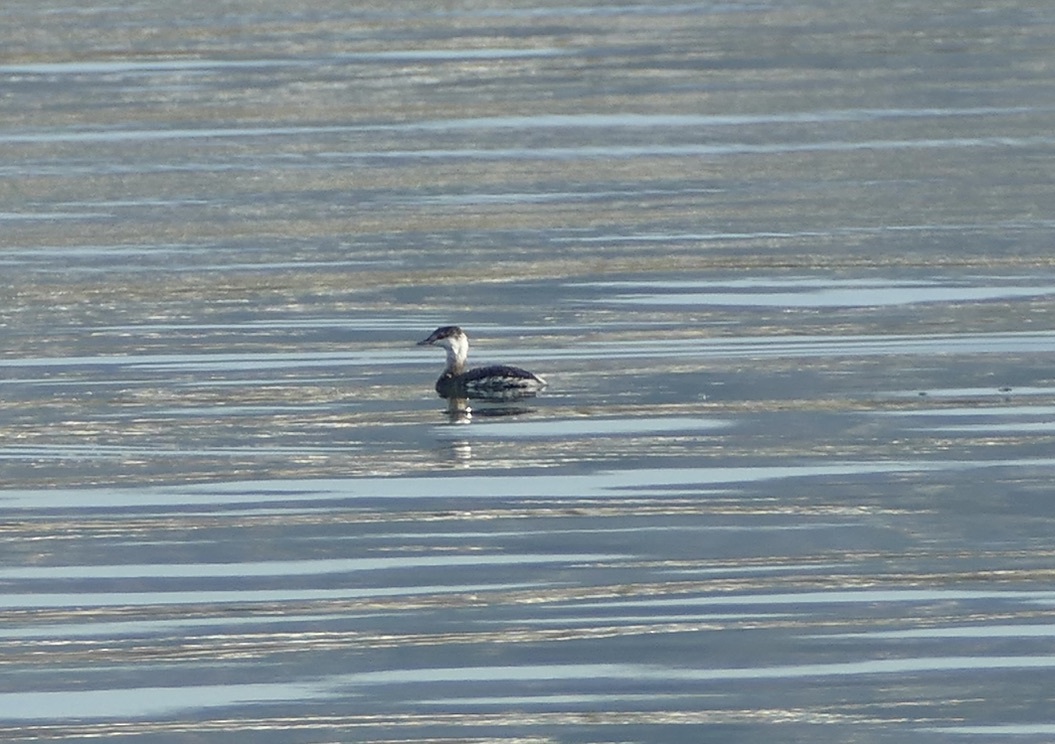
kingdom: Animalia
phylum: Chordata
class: Aves
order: Podicipediformes
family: Podicipedidae
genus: Podiceps
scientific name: Podiceps auritus
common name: Horned grebe
